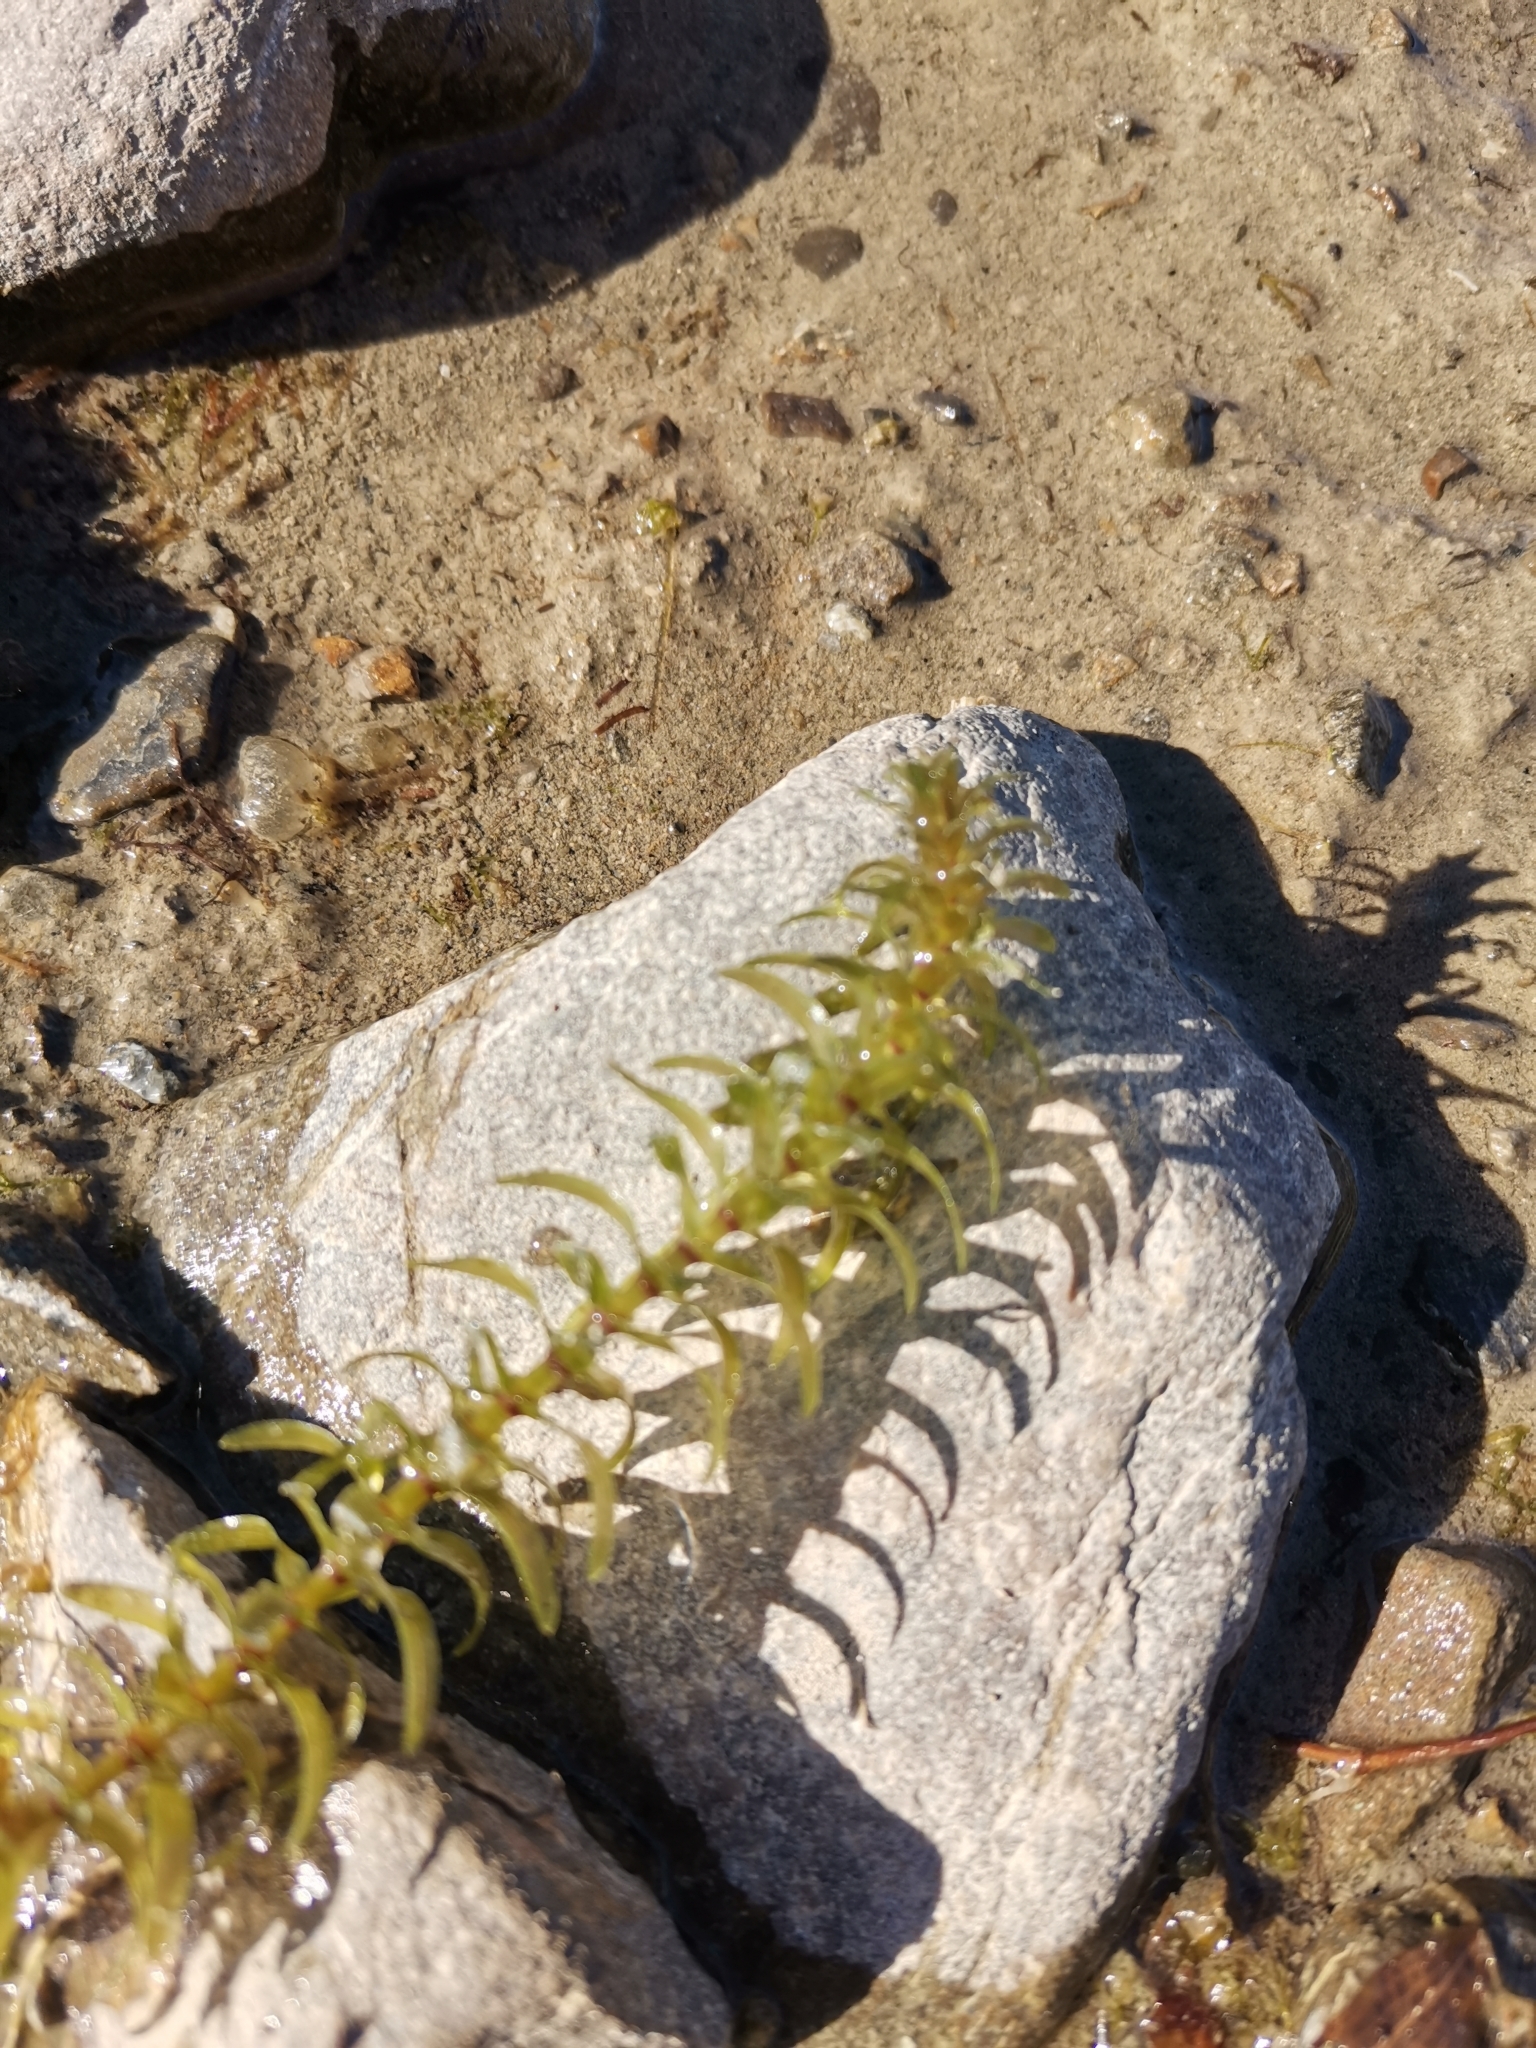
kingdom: Plantae
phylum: Tracheophyta
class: Liliopsida
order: Alismatales
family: Hydrocharitaceae
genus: Elodea
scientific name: Elodea canadensis
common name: Canadian waterweed
